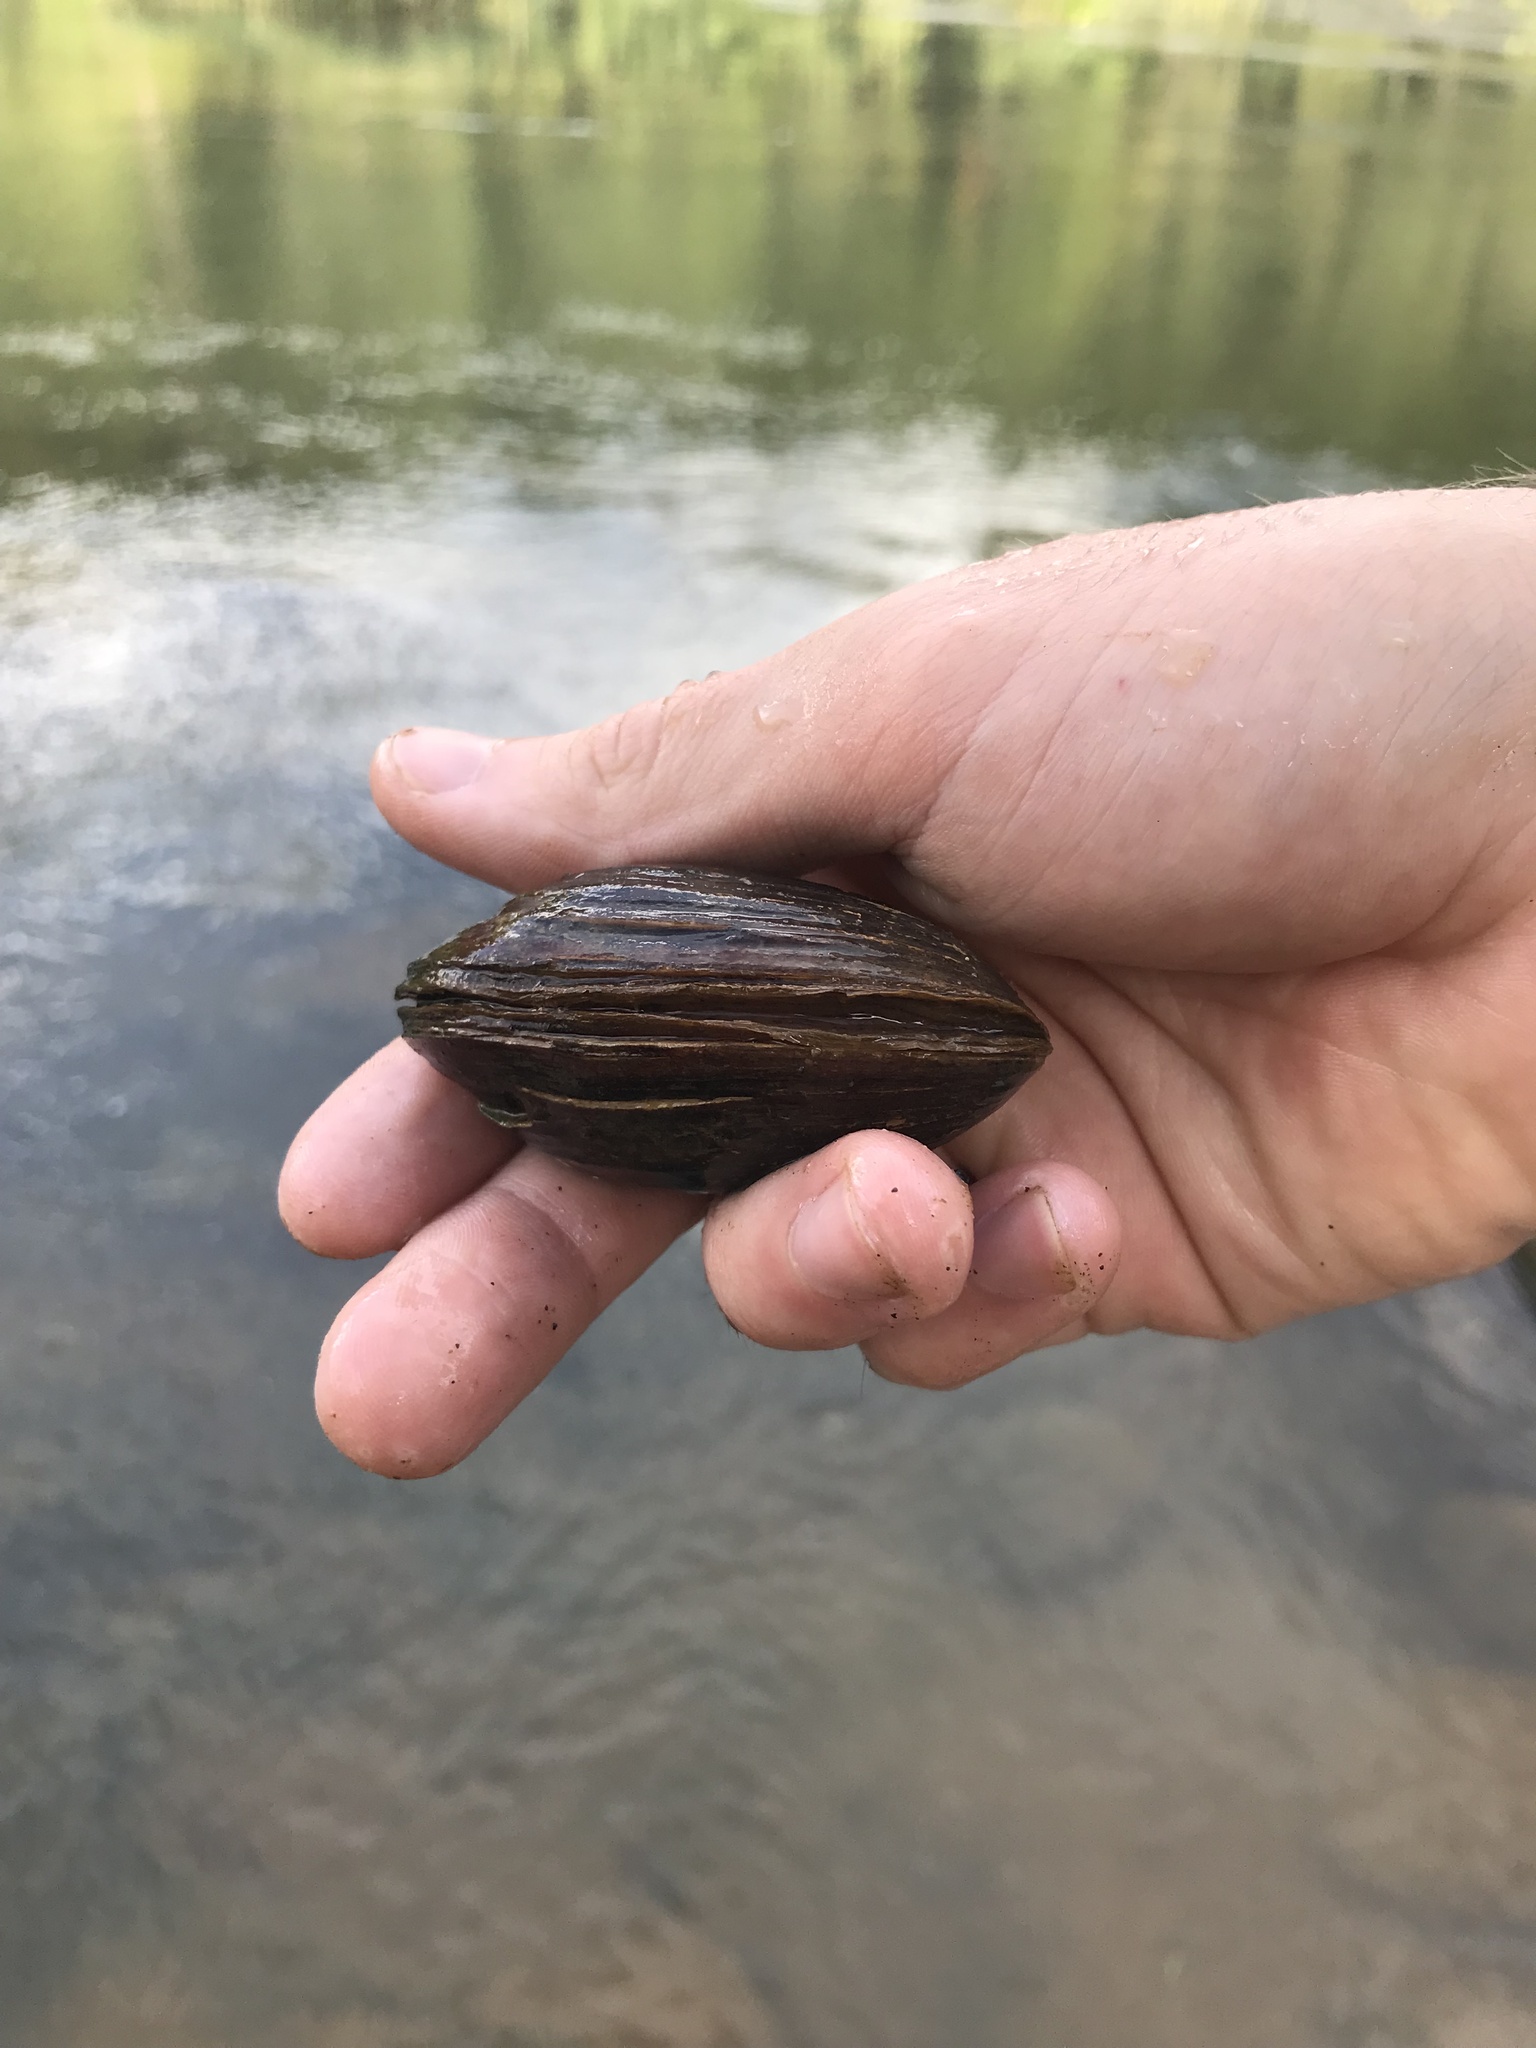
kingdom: Animalia
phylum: Mollusca
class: Bivalvia
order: Unionida
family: Unionidae
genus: Leaunio
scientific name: Leaunio lienosus
